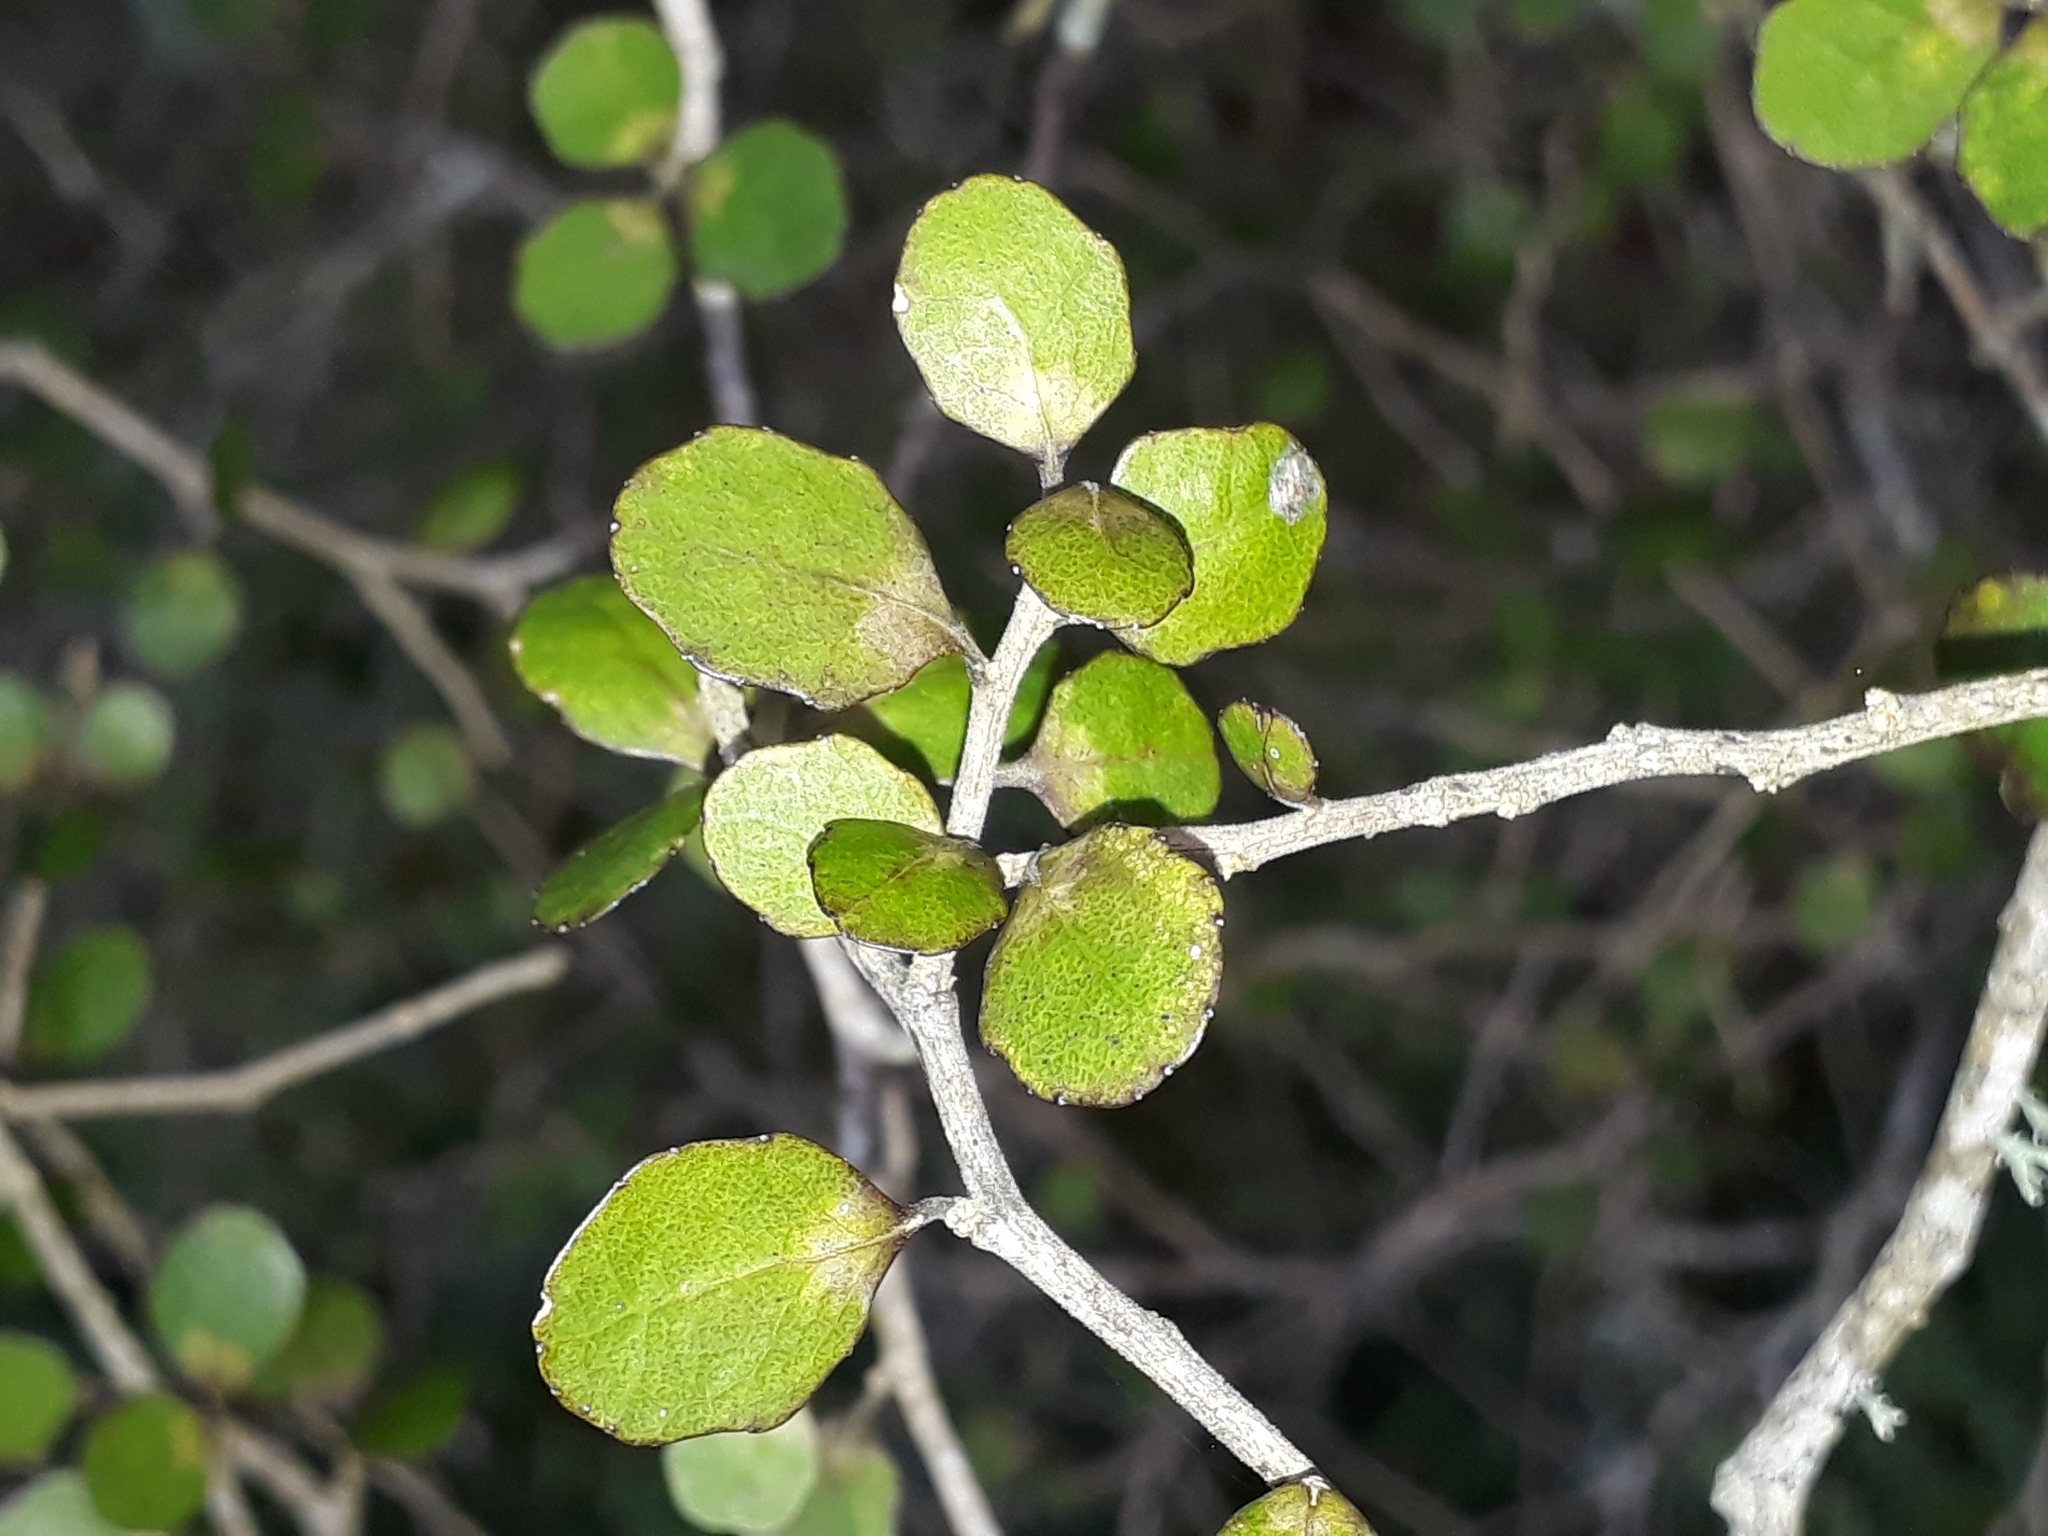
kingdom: Plantae
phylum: Tracheophyta
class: Magnoliopsida
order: Malpighiales
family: Violaceae
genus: Melicytus
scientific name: Melicytus micranthus
